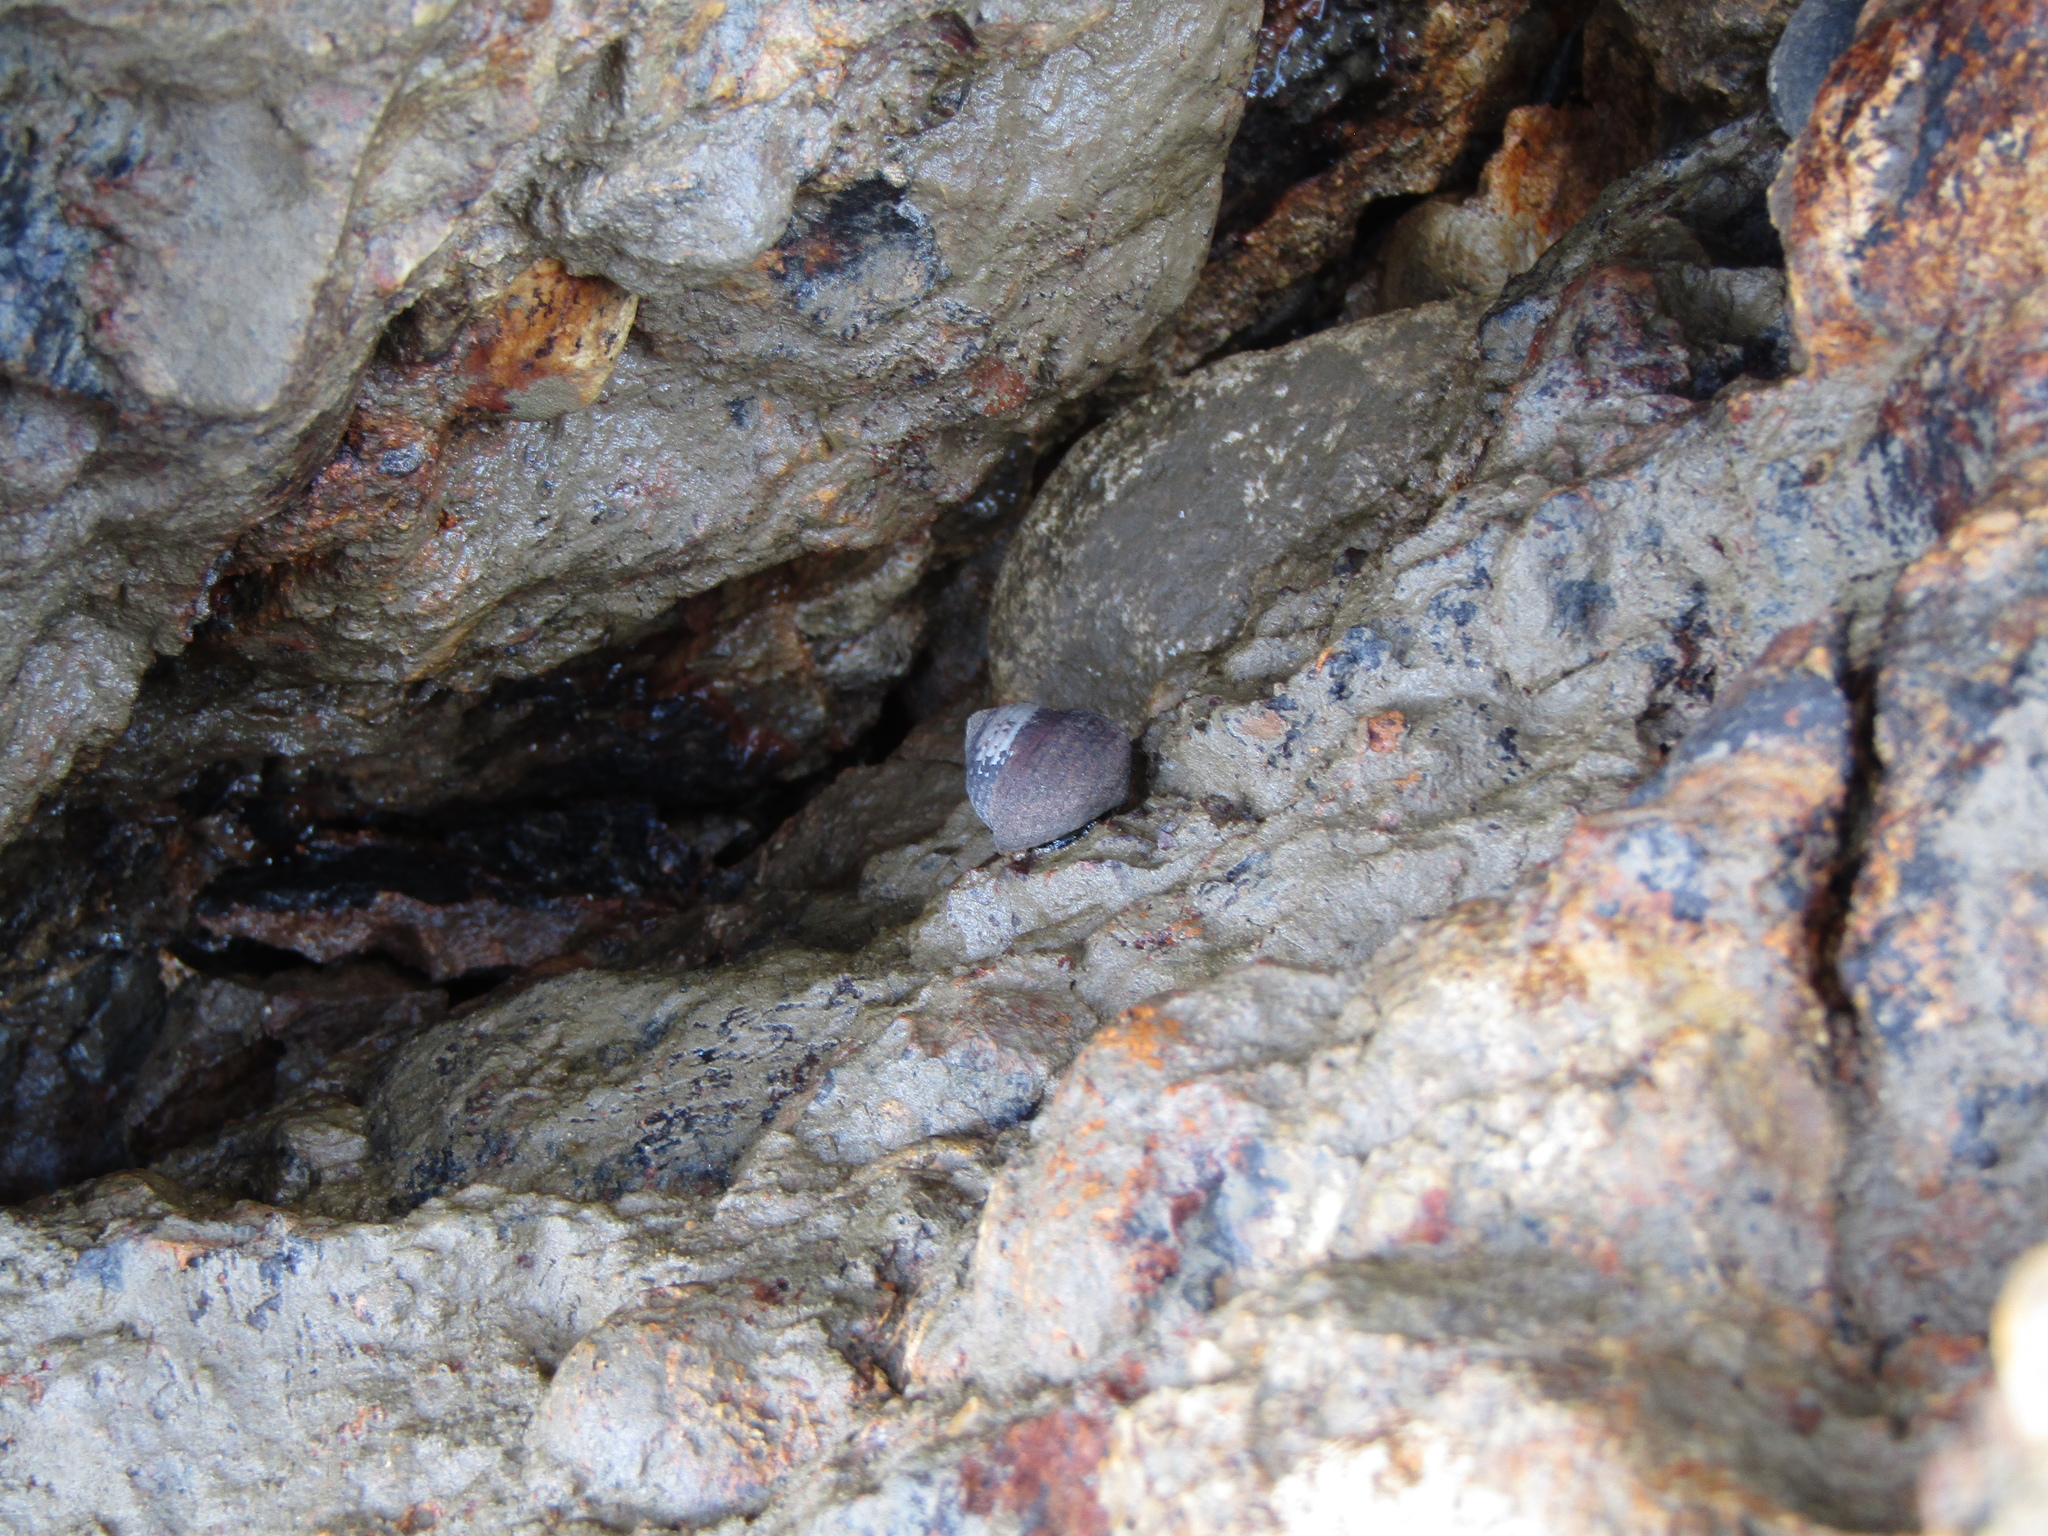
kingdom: Animalia
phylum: Mollusca
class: Gastropoda
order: Trochida
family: Trochidae
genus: Diloma
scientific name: Diloma aethiops
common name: Scorched monodont
